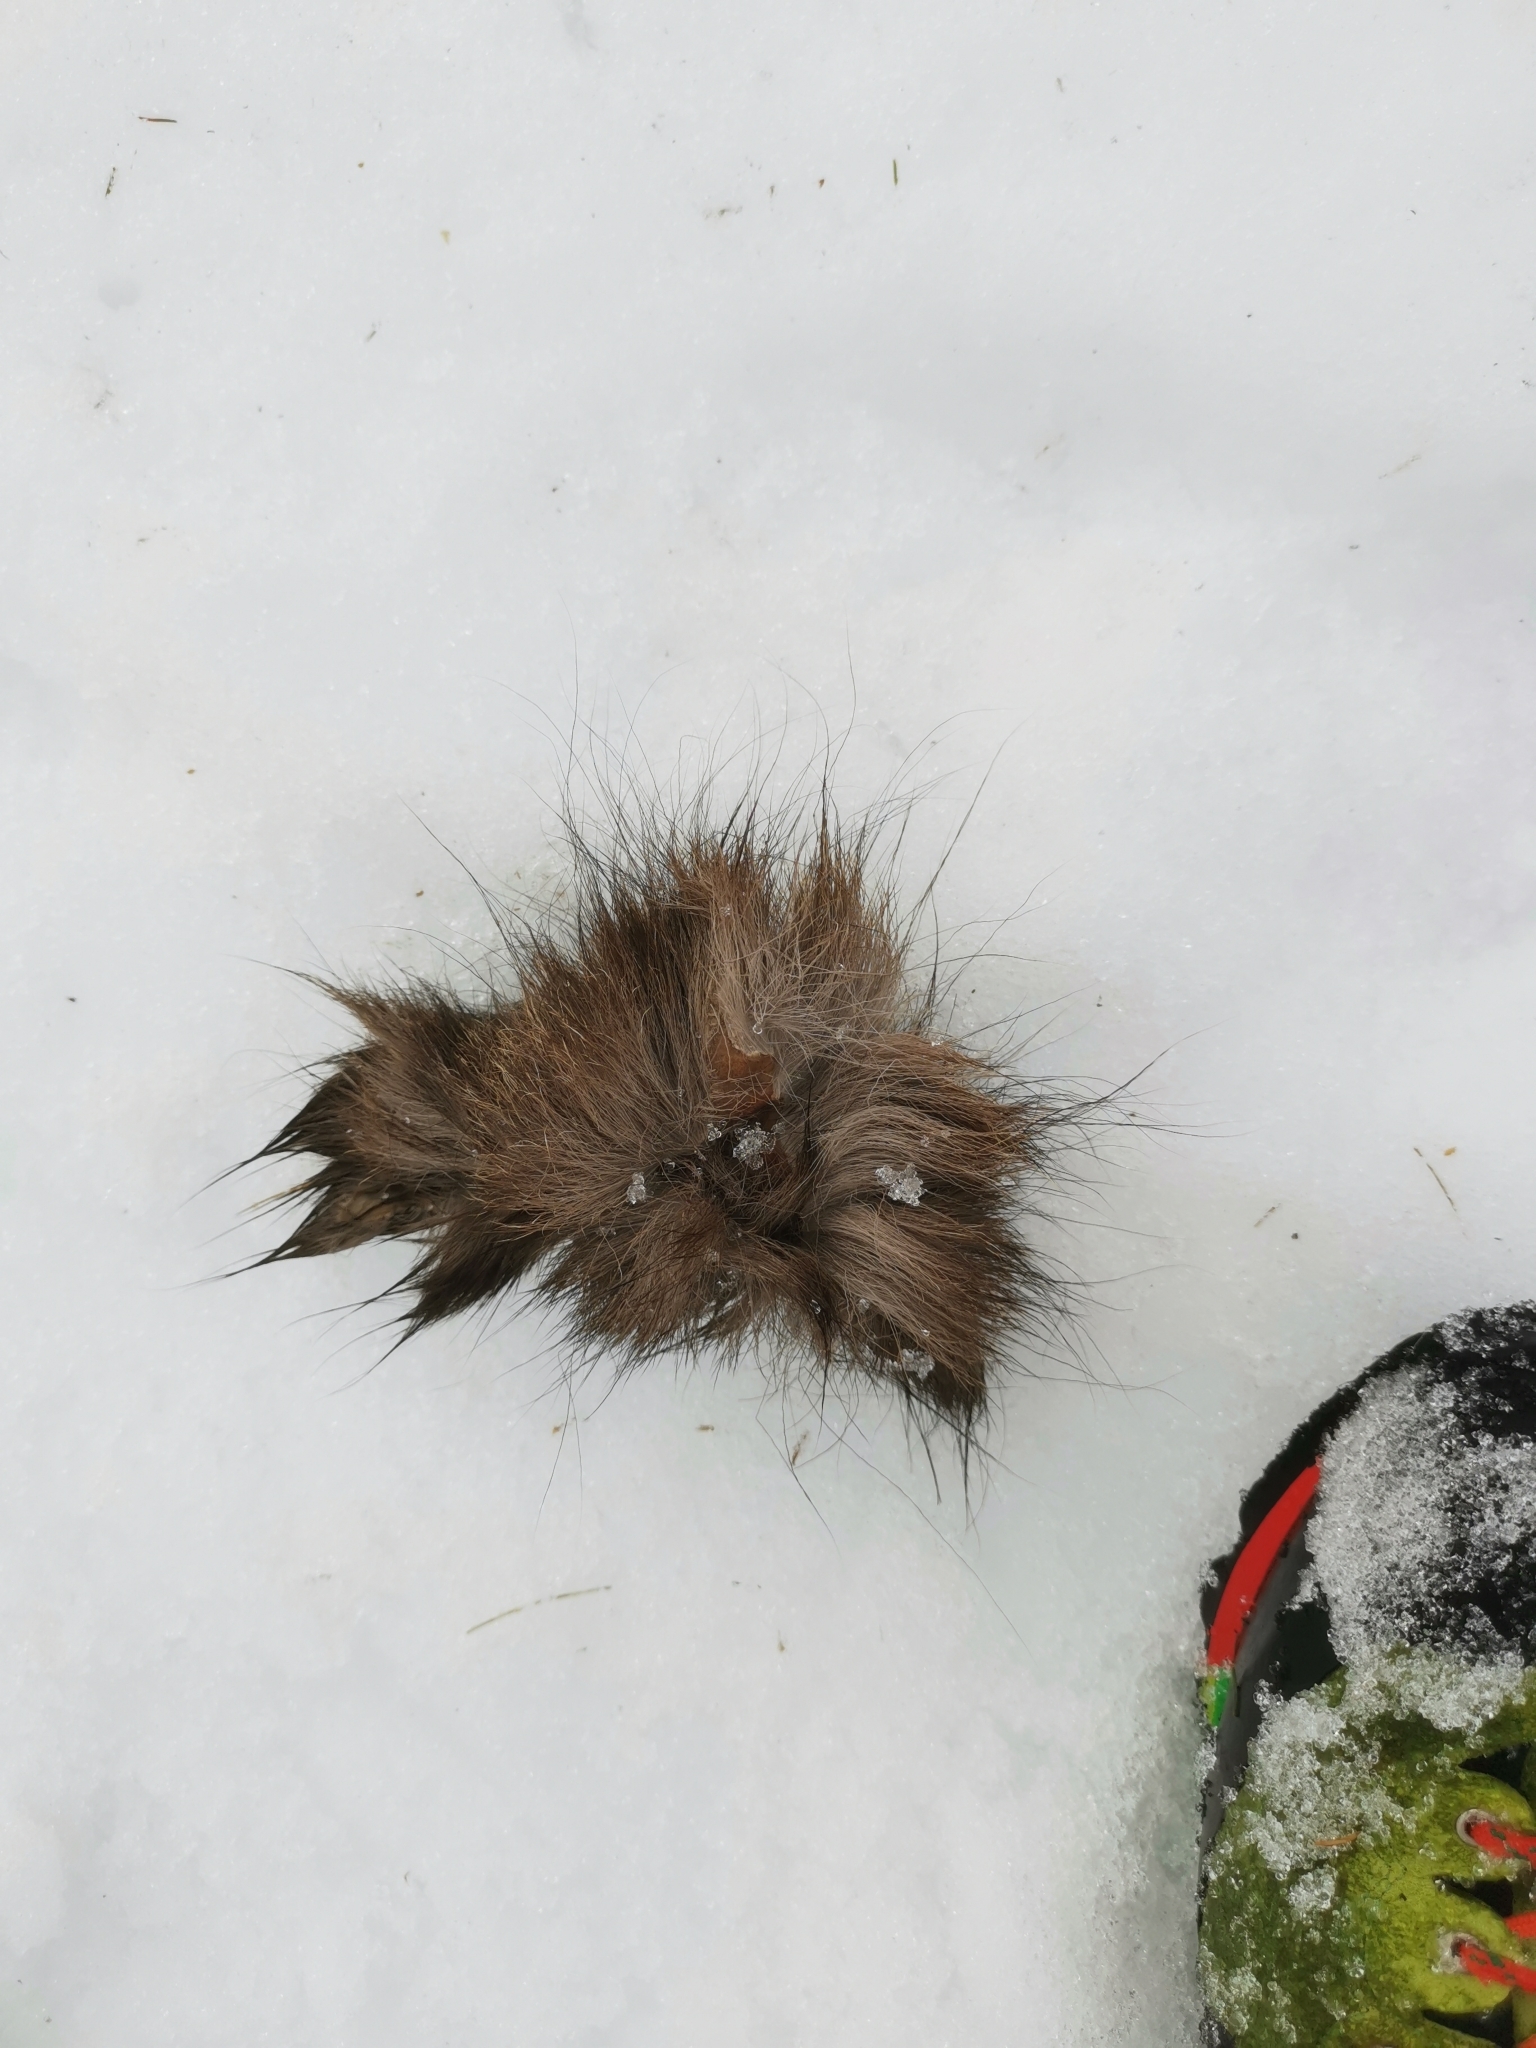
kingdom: Animalia
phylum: Chordata
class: Mammalia
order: Artiodactyla
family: Bovidae
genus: Rupicapra
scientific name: Rupicapra rupicapra
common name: Chamois
